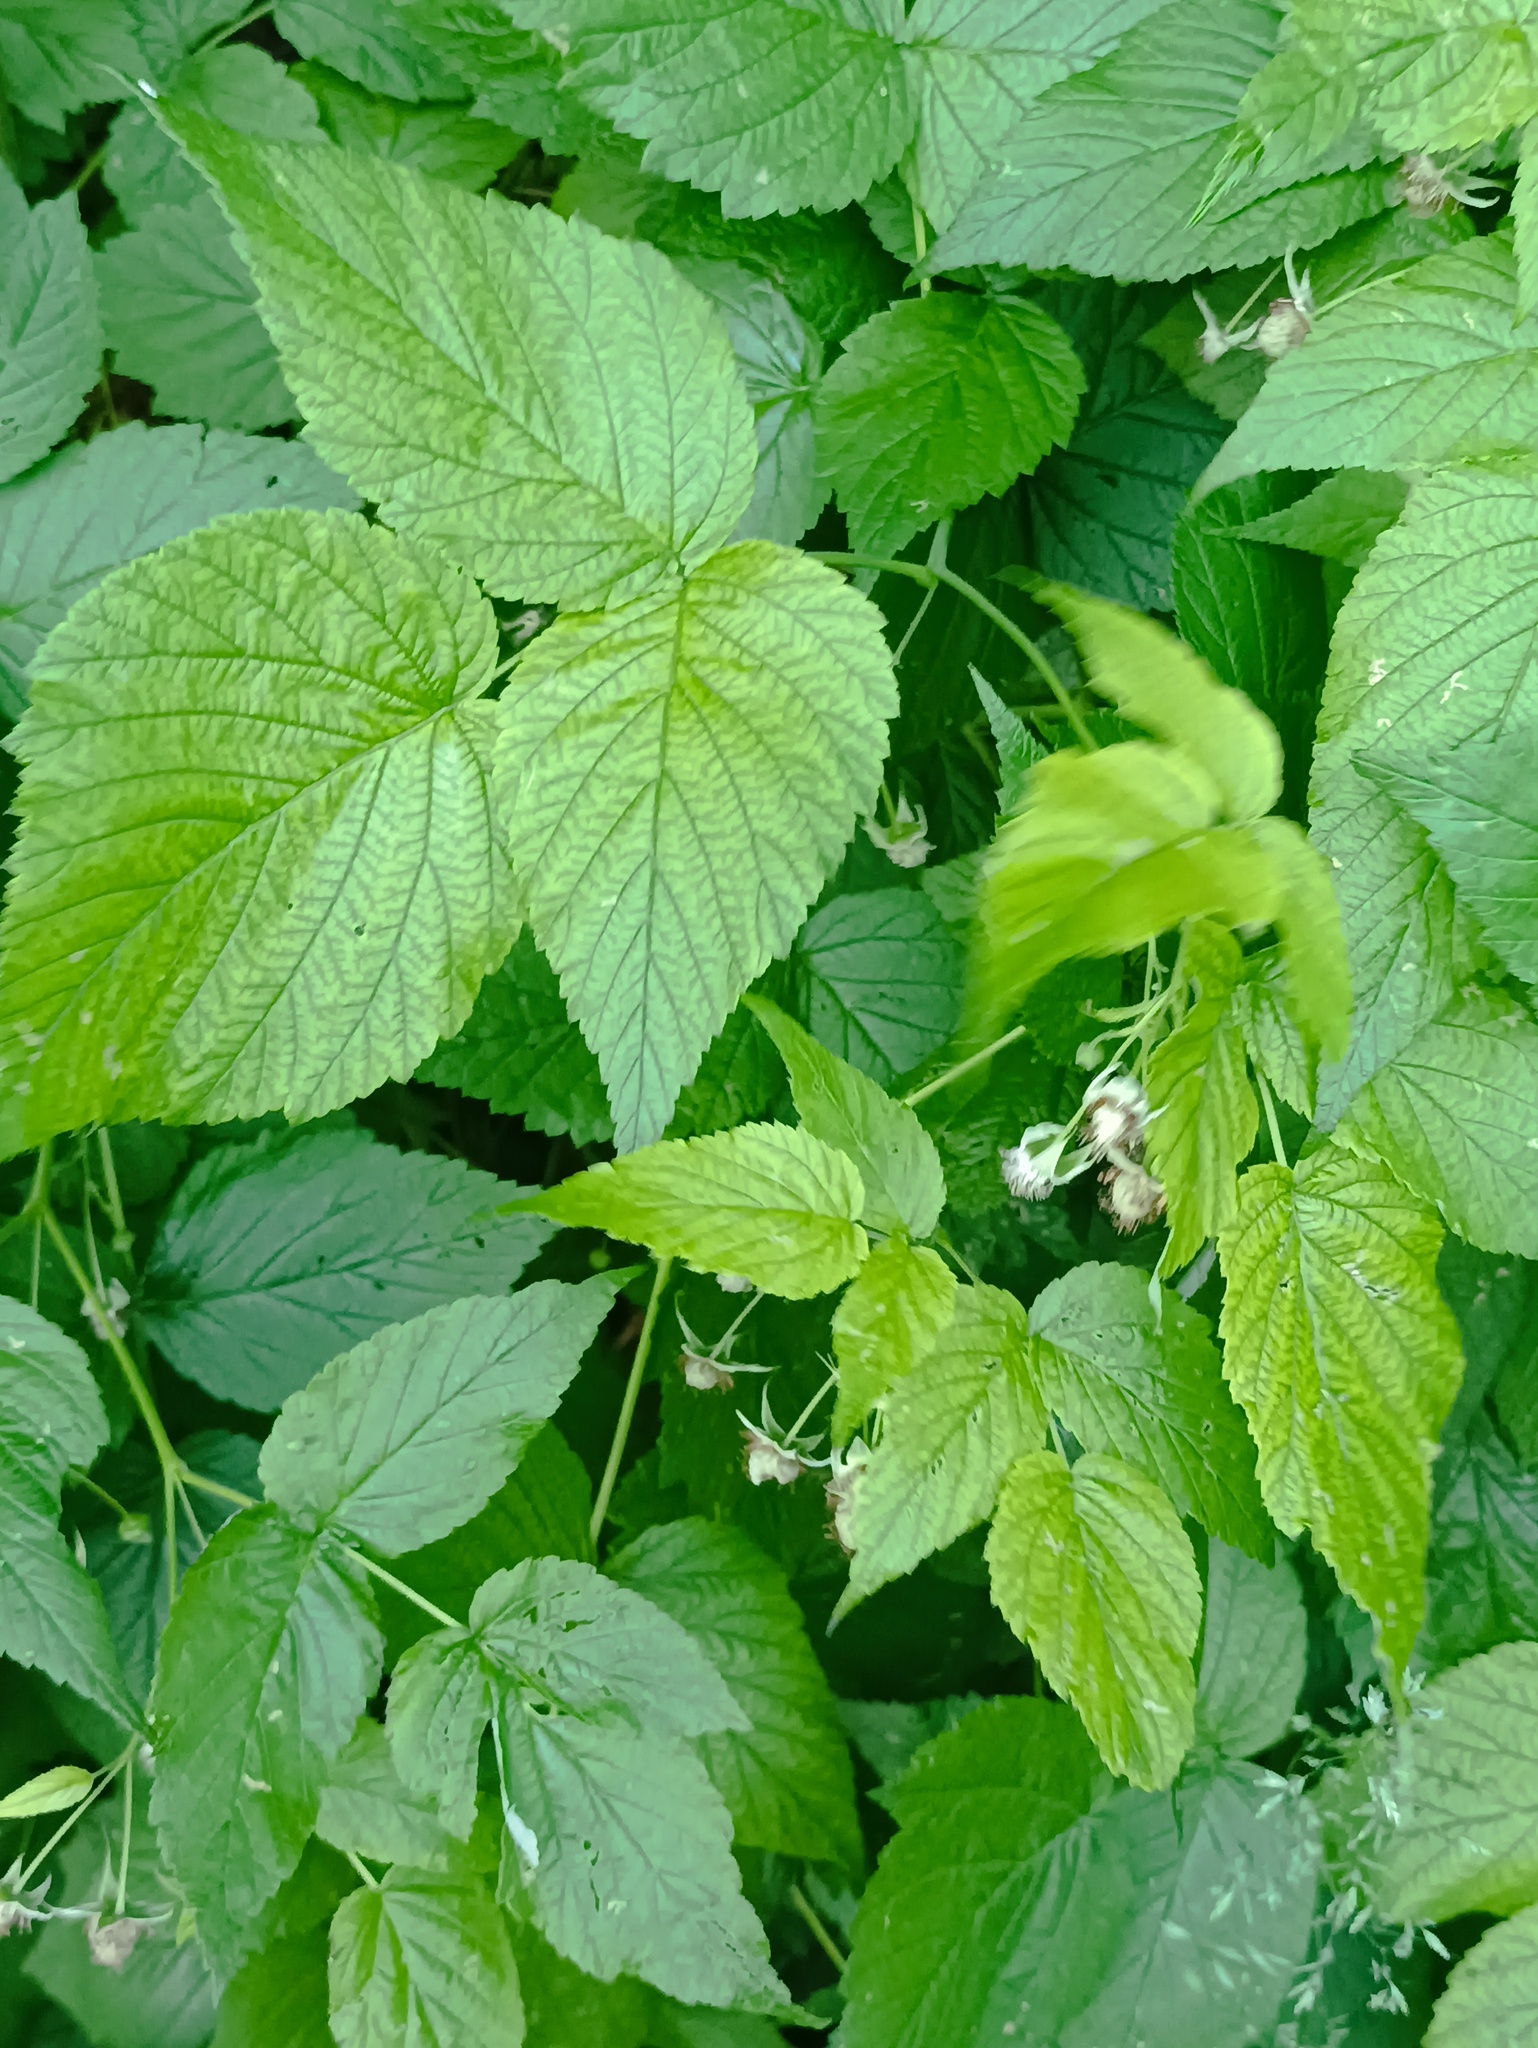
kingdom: Plantae
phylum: Tracheophyta
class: Magnoliopsida
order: Rosales
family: Rosaceae
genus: Rubus
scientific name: Rubus idaeus
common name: Raspberry
